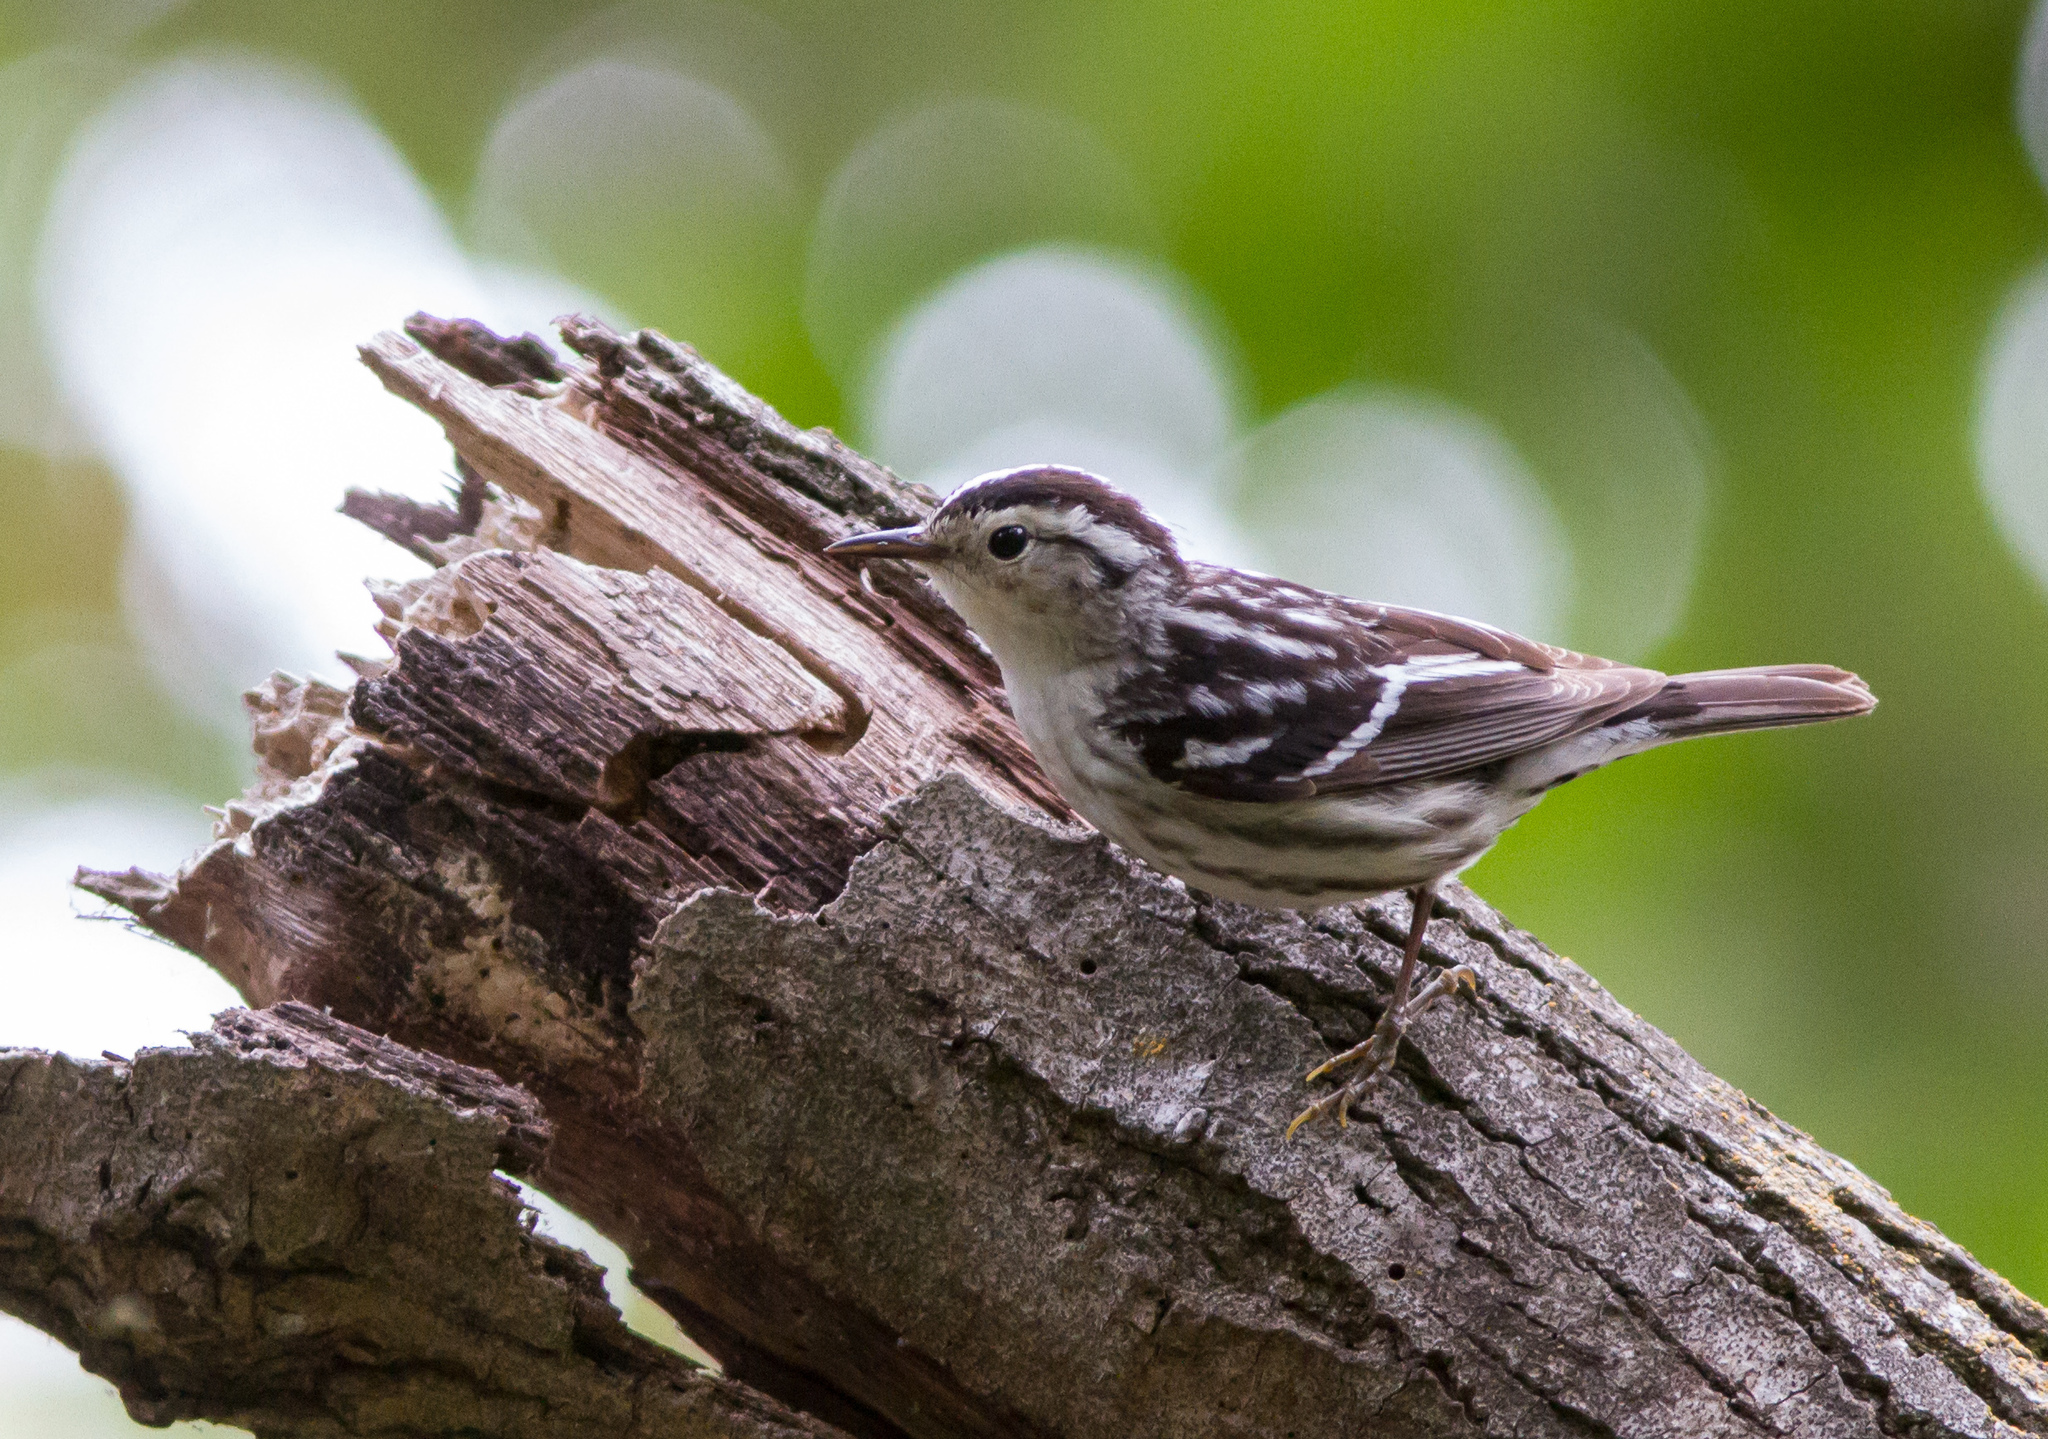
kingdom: Animalia
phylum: Chordata
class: Aves
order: Passeriformes
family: Parulidae
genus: Mniotilta
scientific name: Mniotilta varia
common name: Black-and-white warbler
